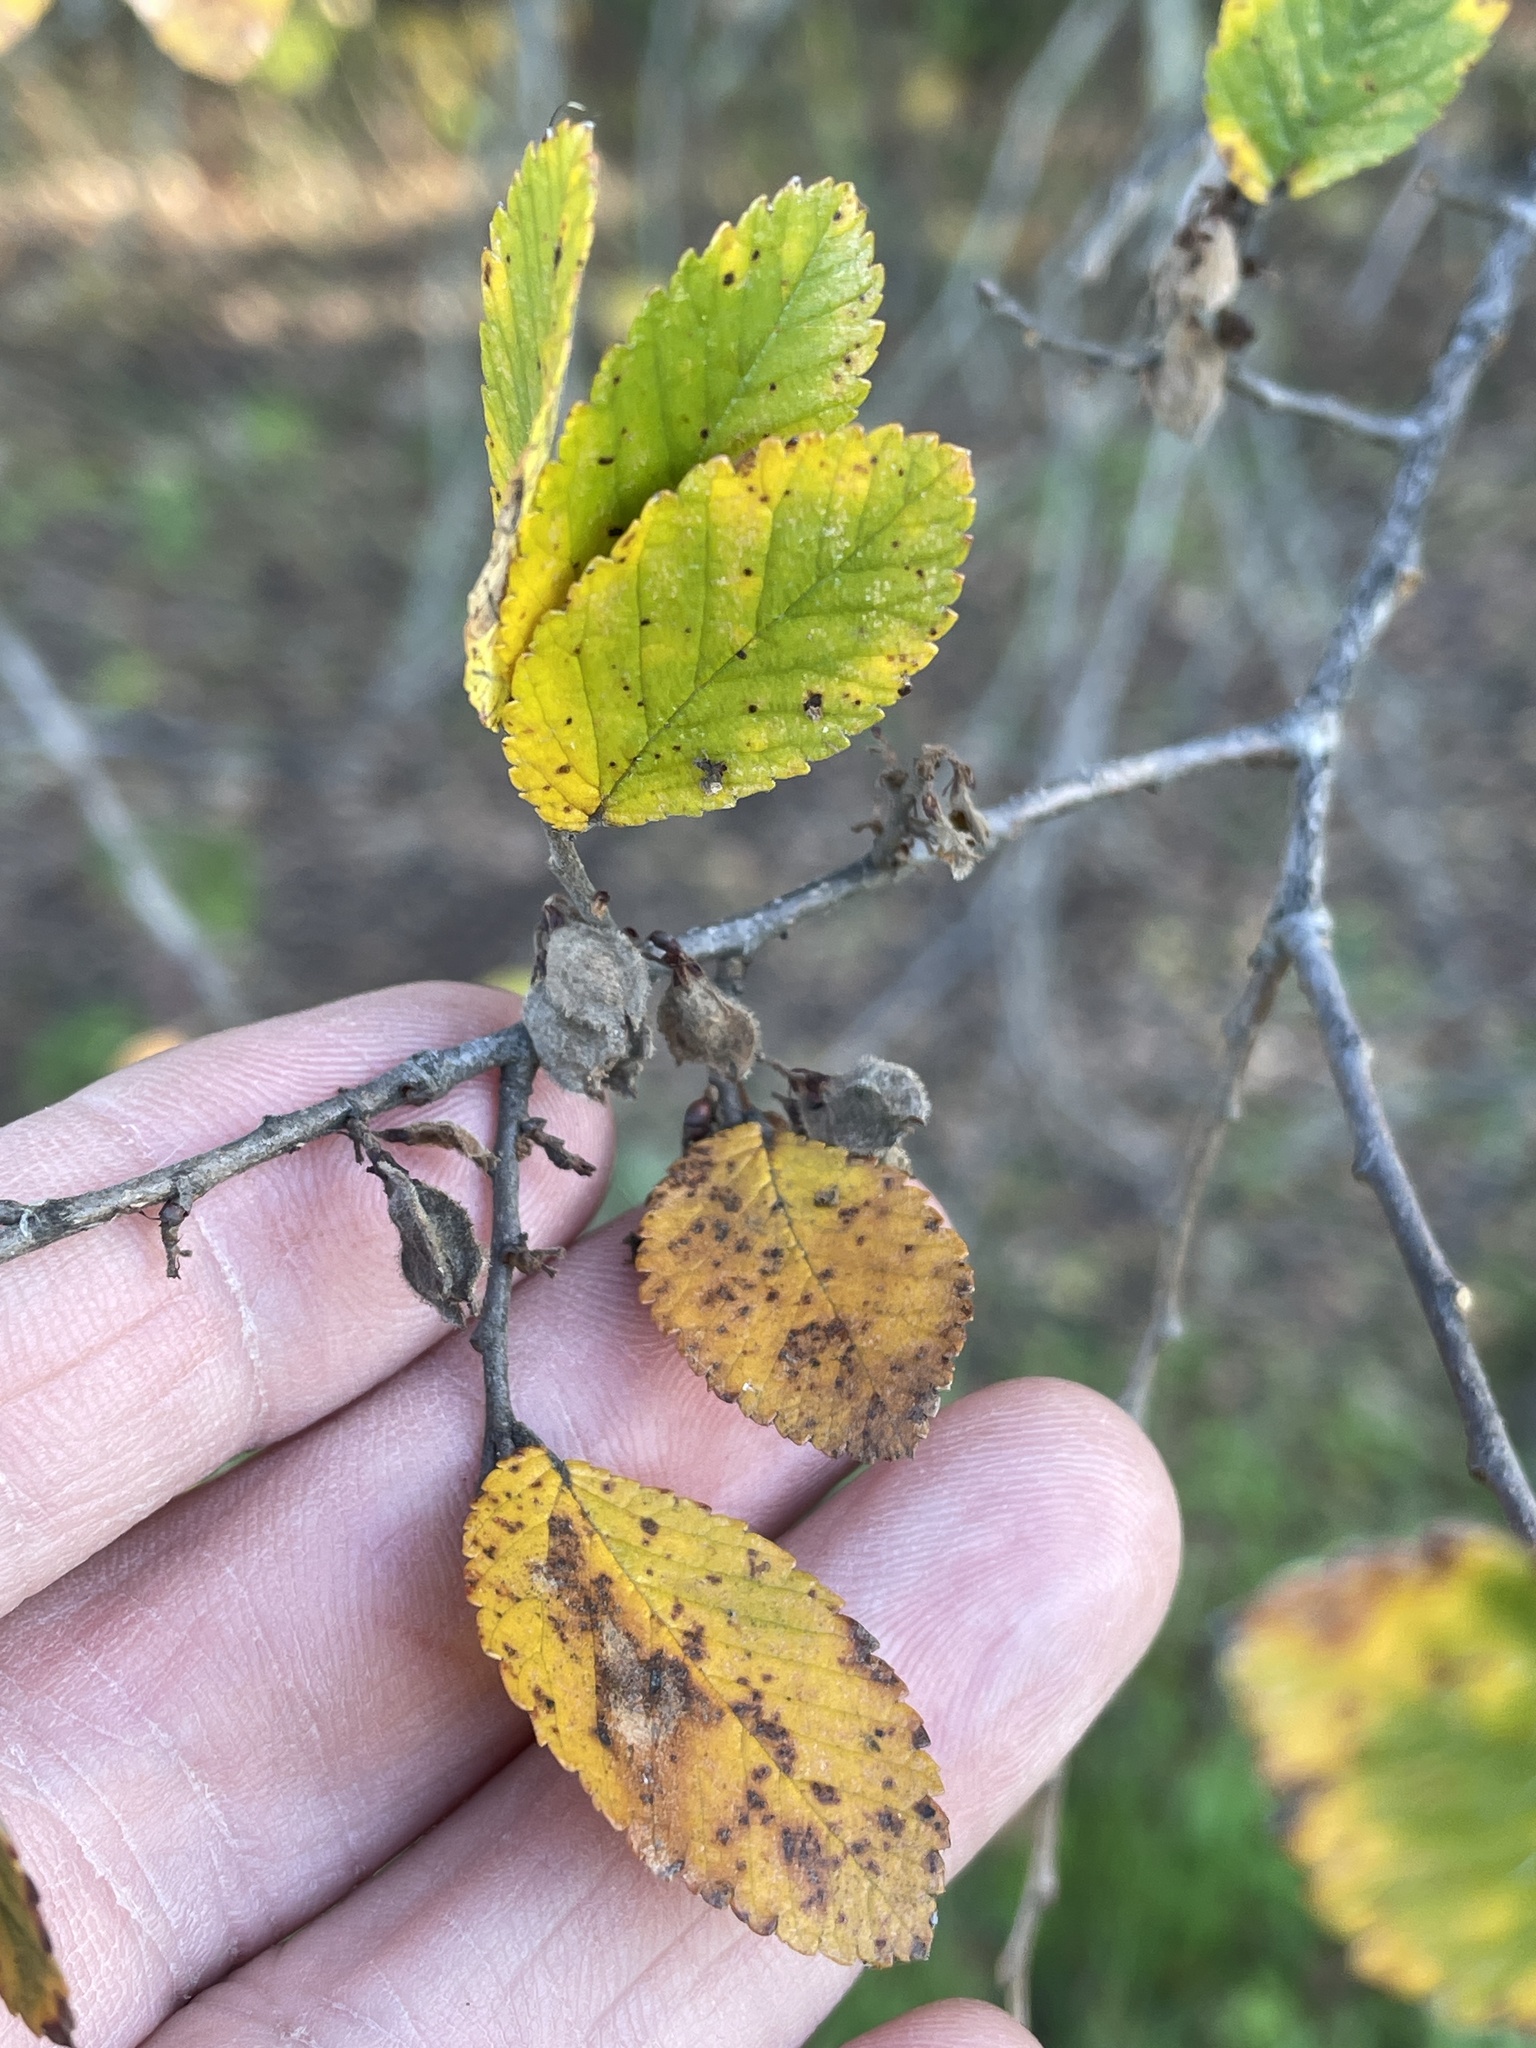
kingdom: Plantae
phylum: Tracheophyta
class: Magnoliopsida
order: Rosales
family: Ulmaceae
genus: Ulmus
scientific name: Ulmus crassifolia
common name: Basket elm
